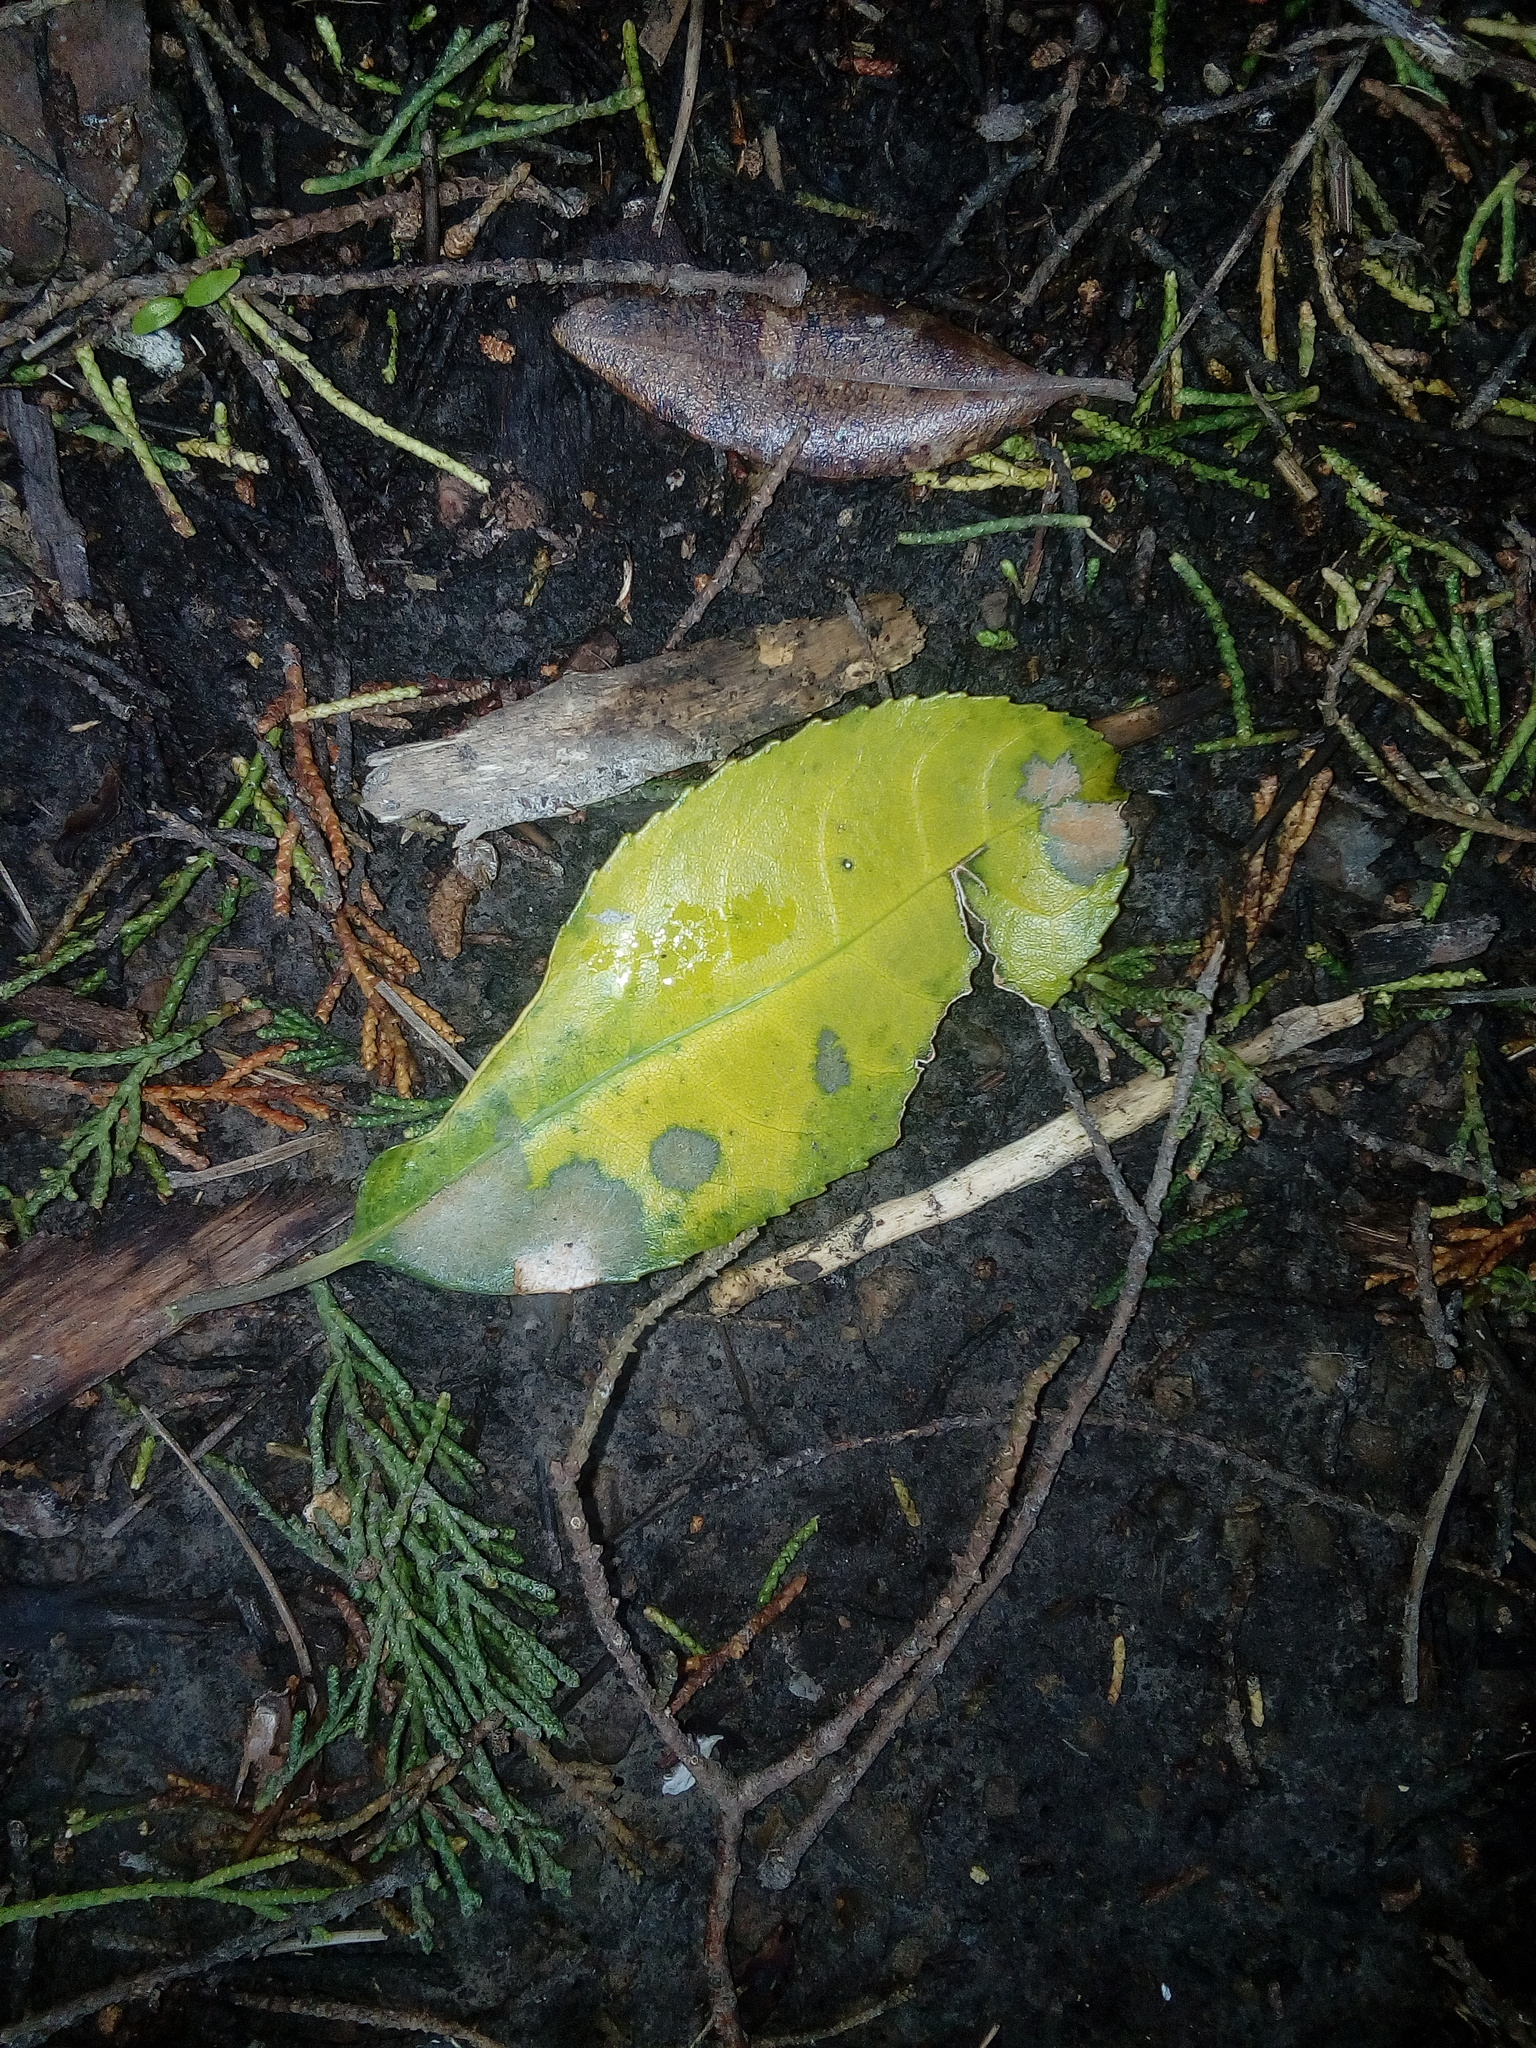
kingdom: Plantae
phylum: Tracheophyta
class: Magnoliopsida
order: Malpighiales
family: Violaceae
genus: Melicytus
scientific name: Melicytus ramiflorus
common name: Mahoe
